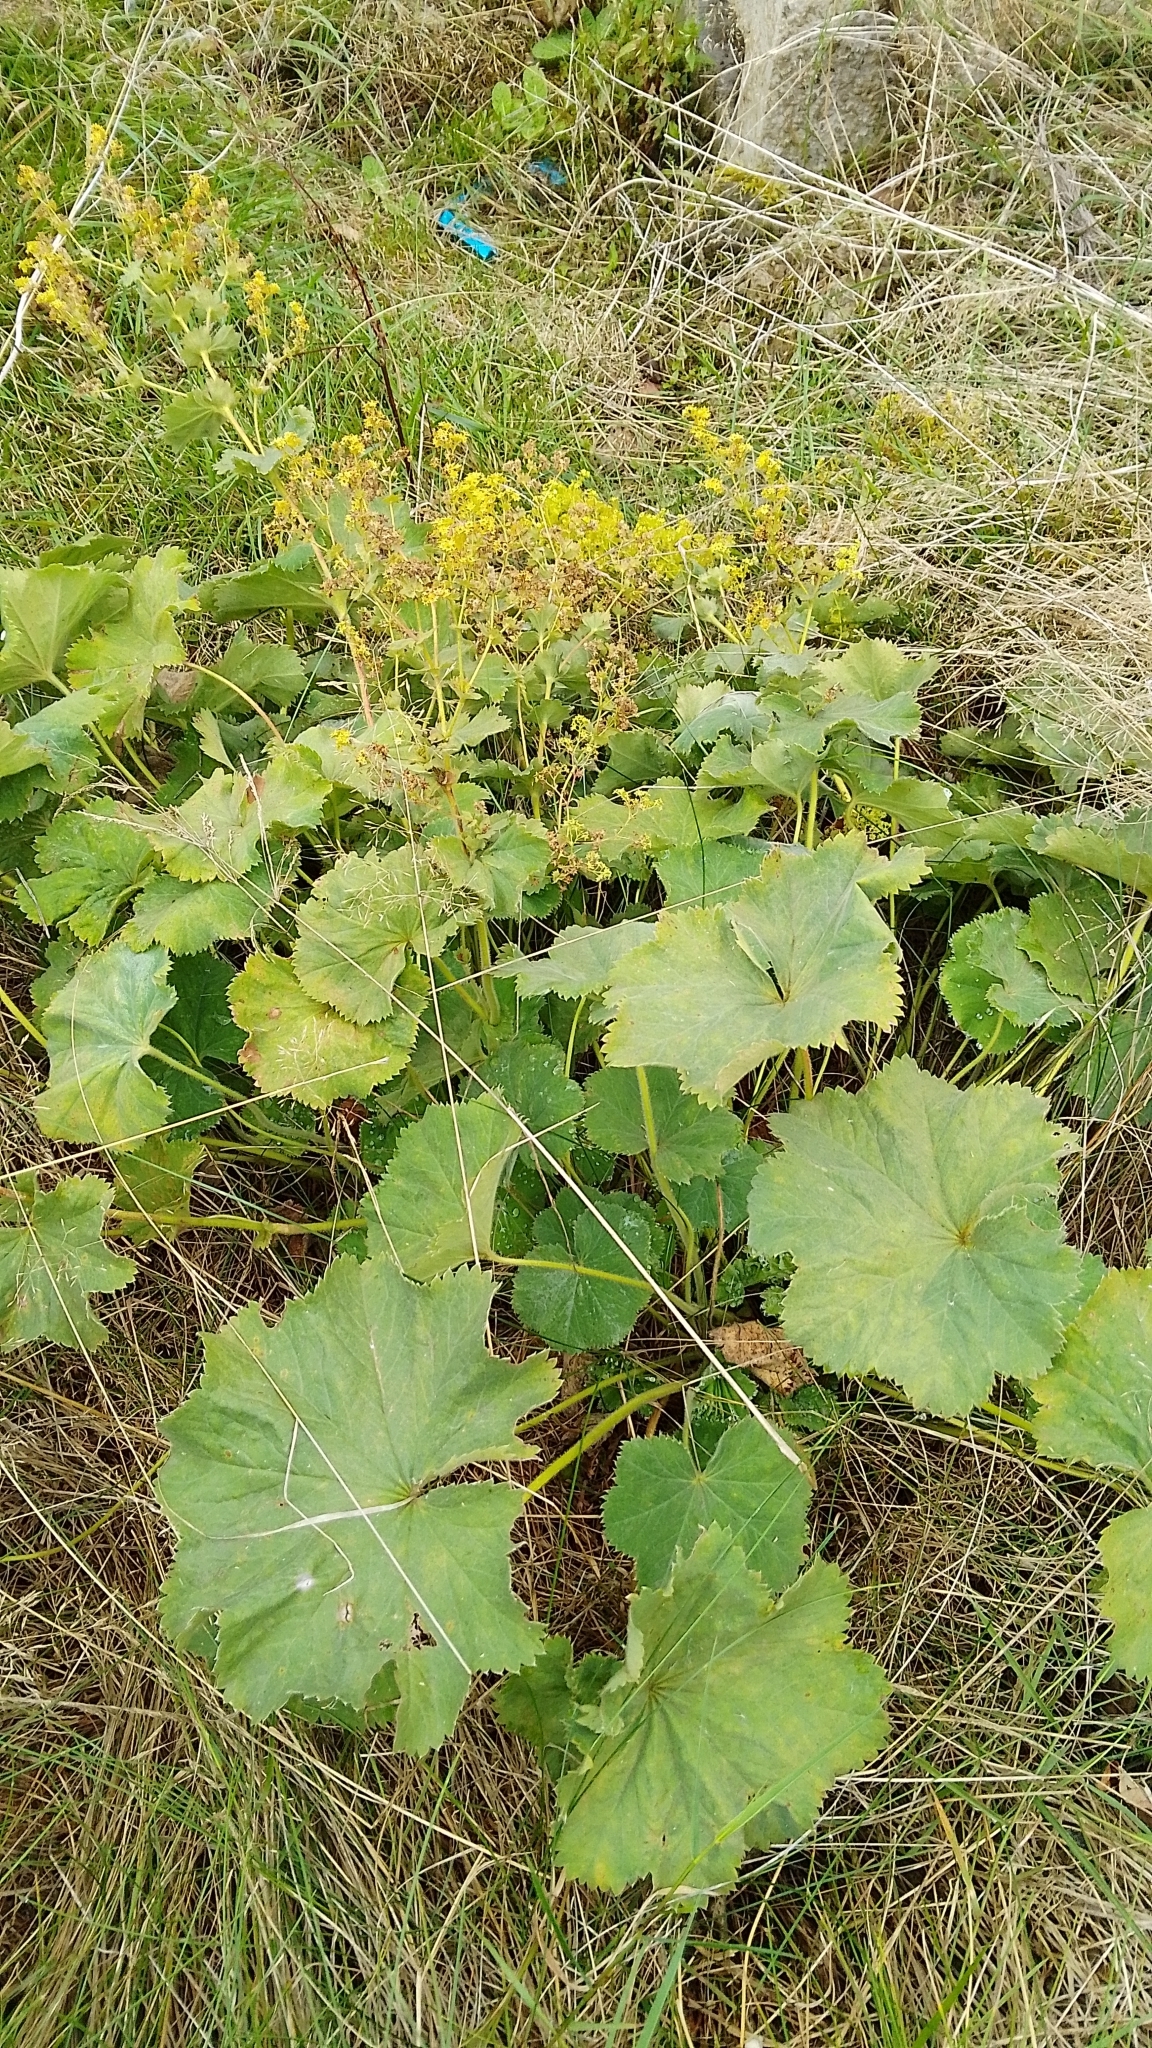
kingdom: Plantae
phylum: Tracheophyta
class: Magnoliopsida
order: Rosales
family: Rosaceae
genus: Alchemilla
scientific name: Alchemilla mollis
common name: Lady's-mantle
